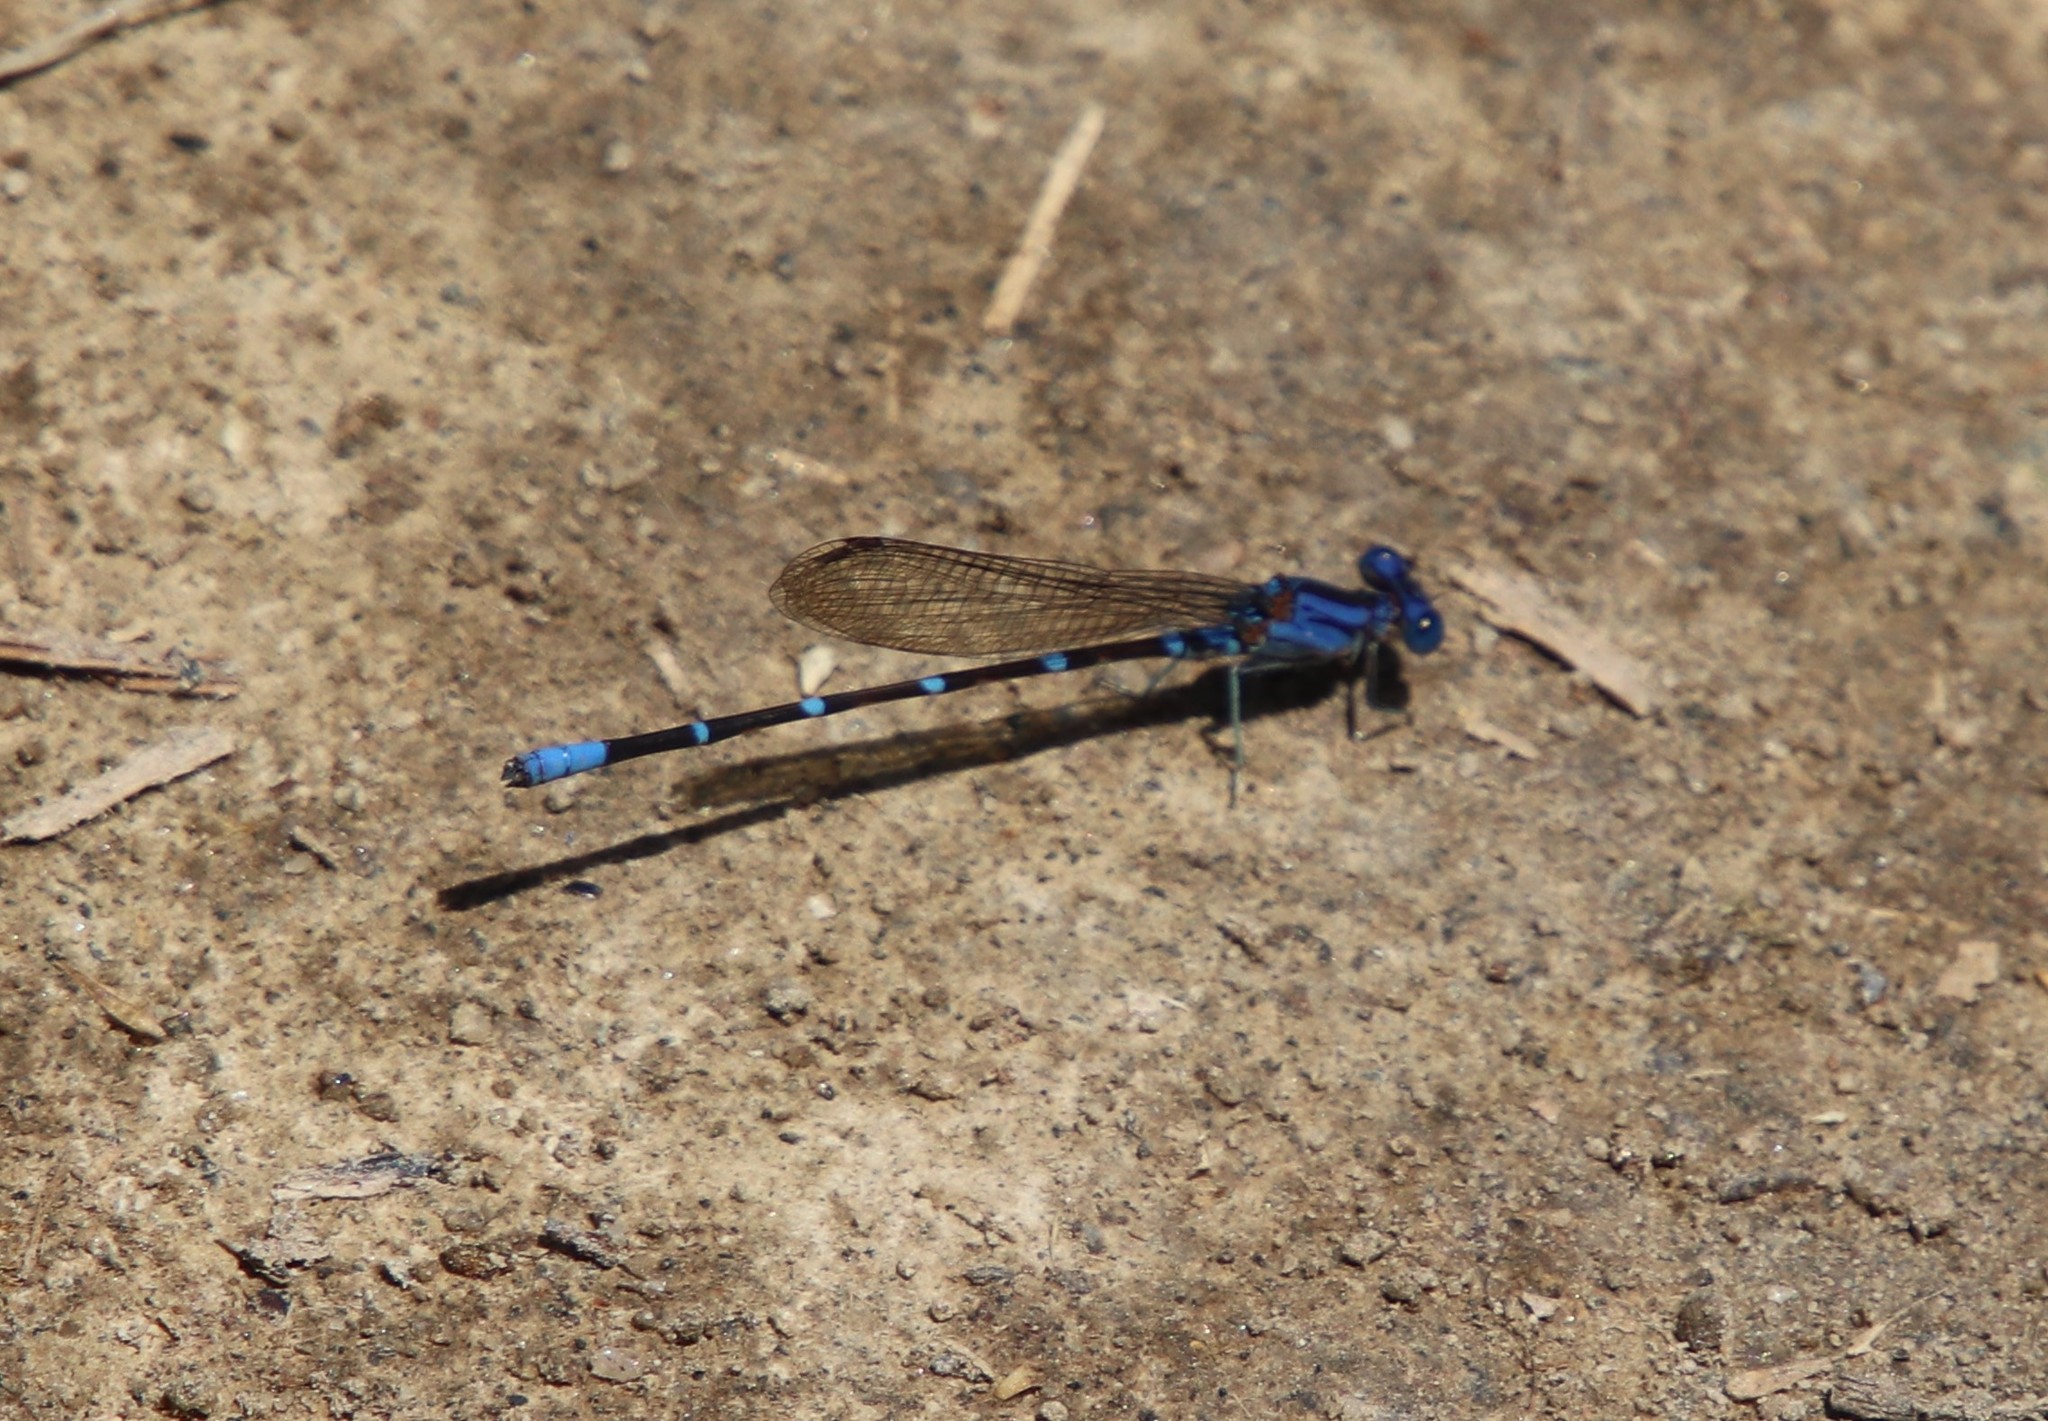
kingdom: Animalia
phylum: Arthropoda
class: Insecta
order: Odonata
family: Coenagrionidae
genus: Argia
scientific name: Argia sedula
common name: Blue-ringed dancer
